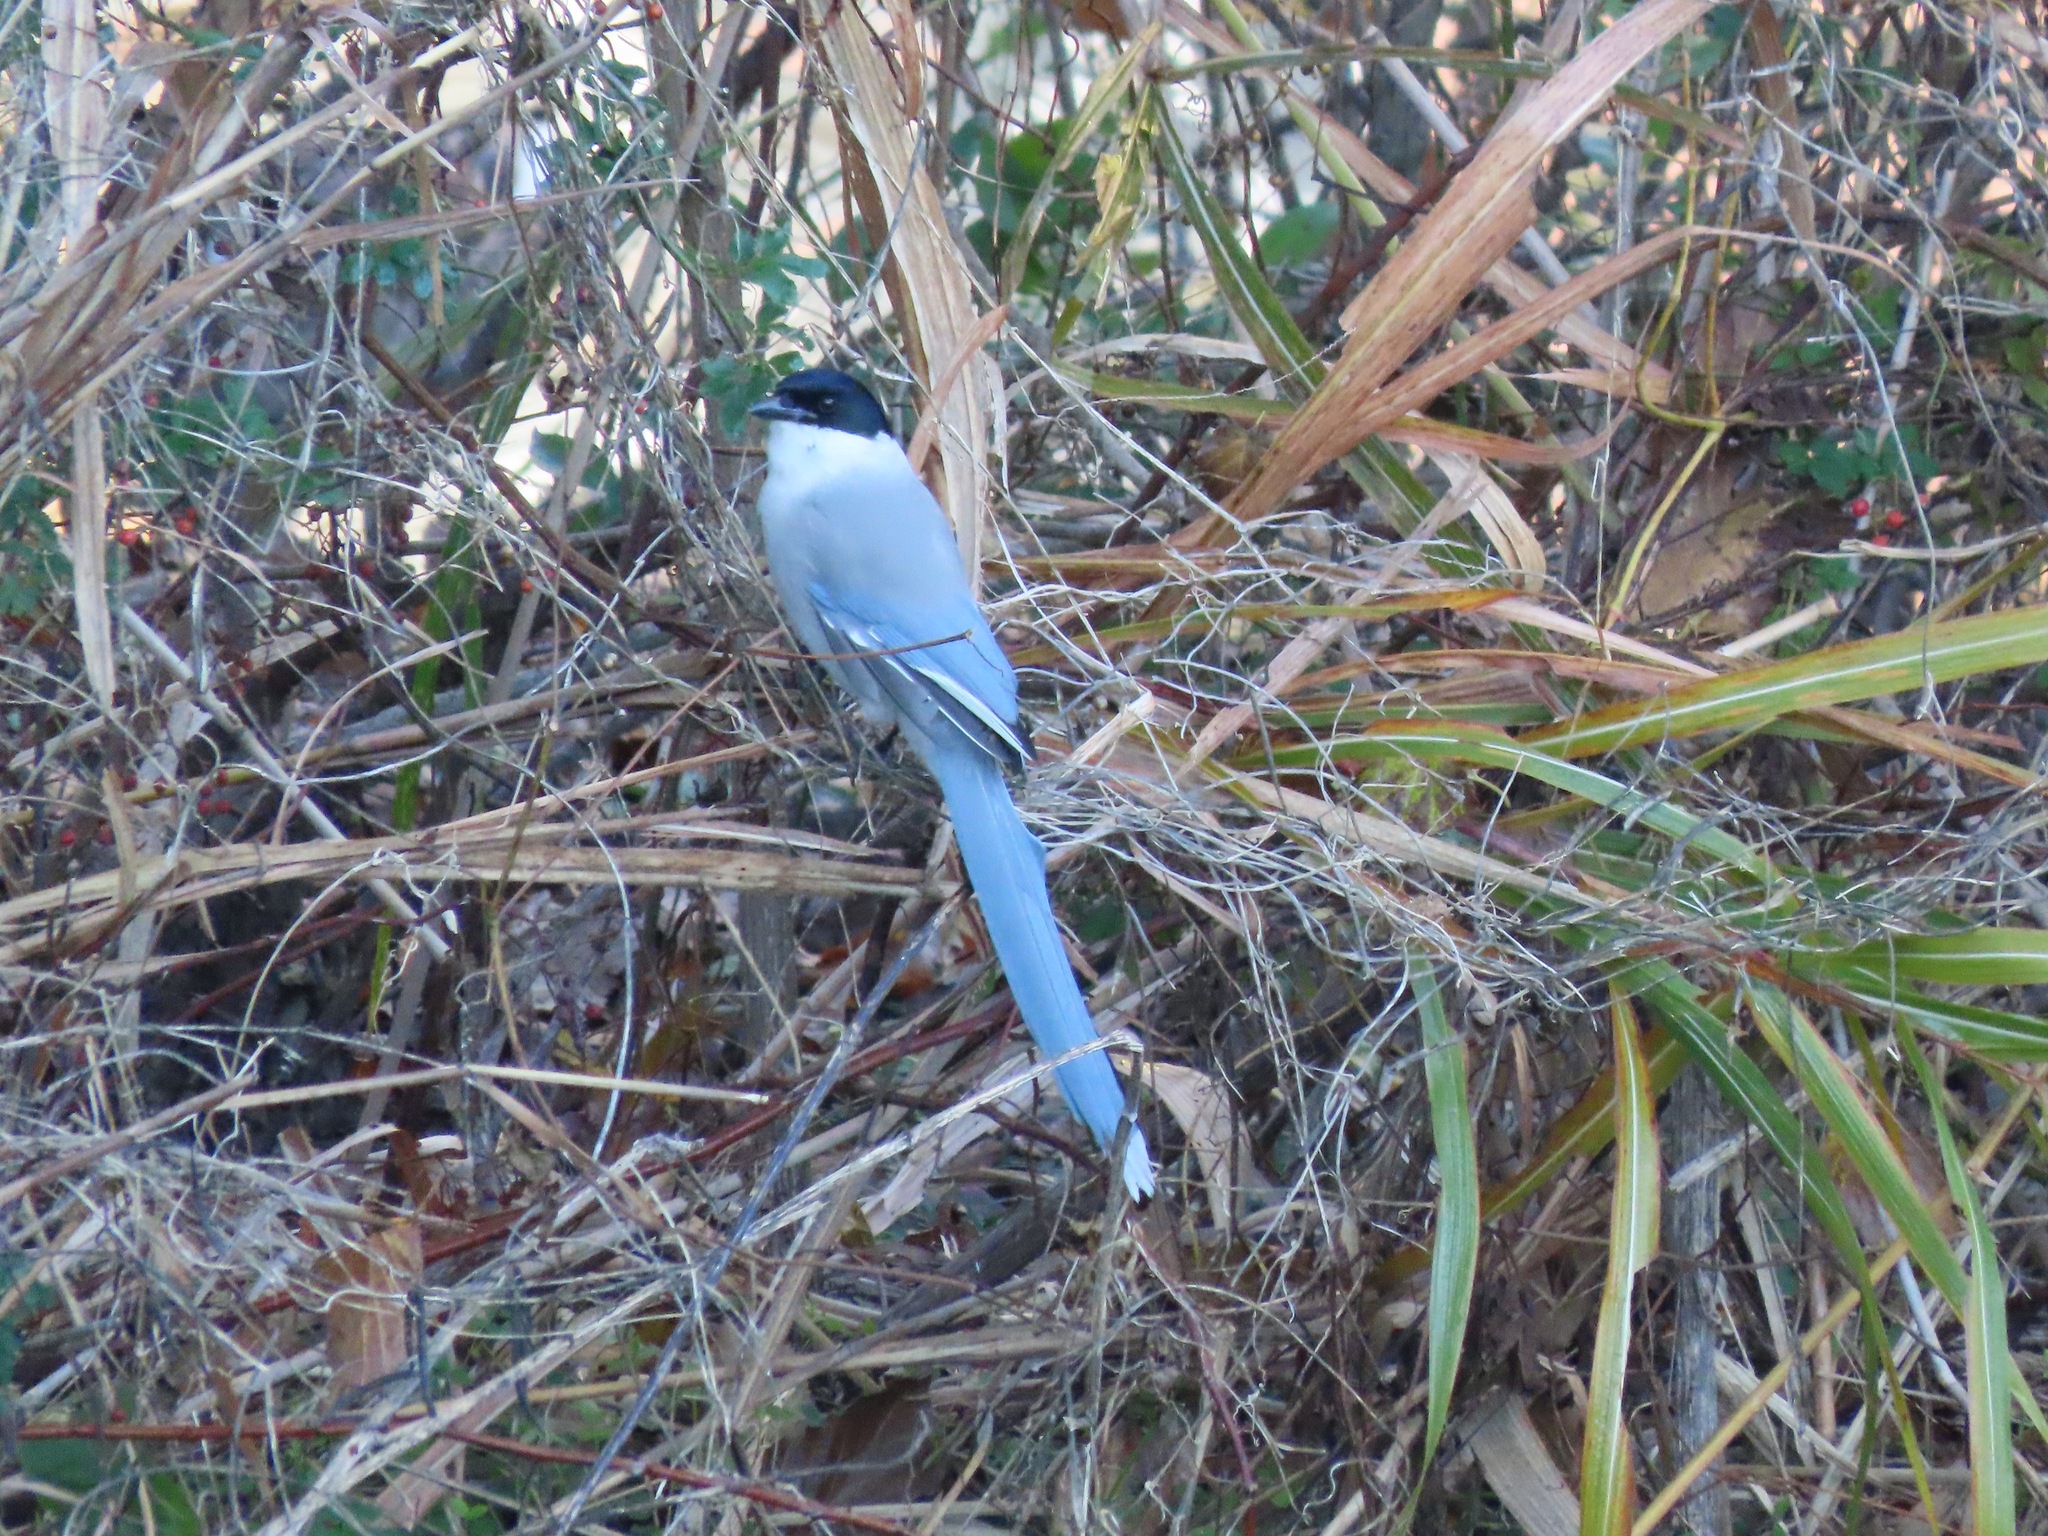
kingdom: Animalia
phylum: Chordata
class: Aves
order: Passeriformes
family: Corvidae
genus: Cyanopica
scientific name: Cyanopica cyanus
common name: Azure-winged magpie
